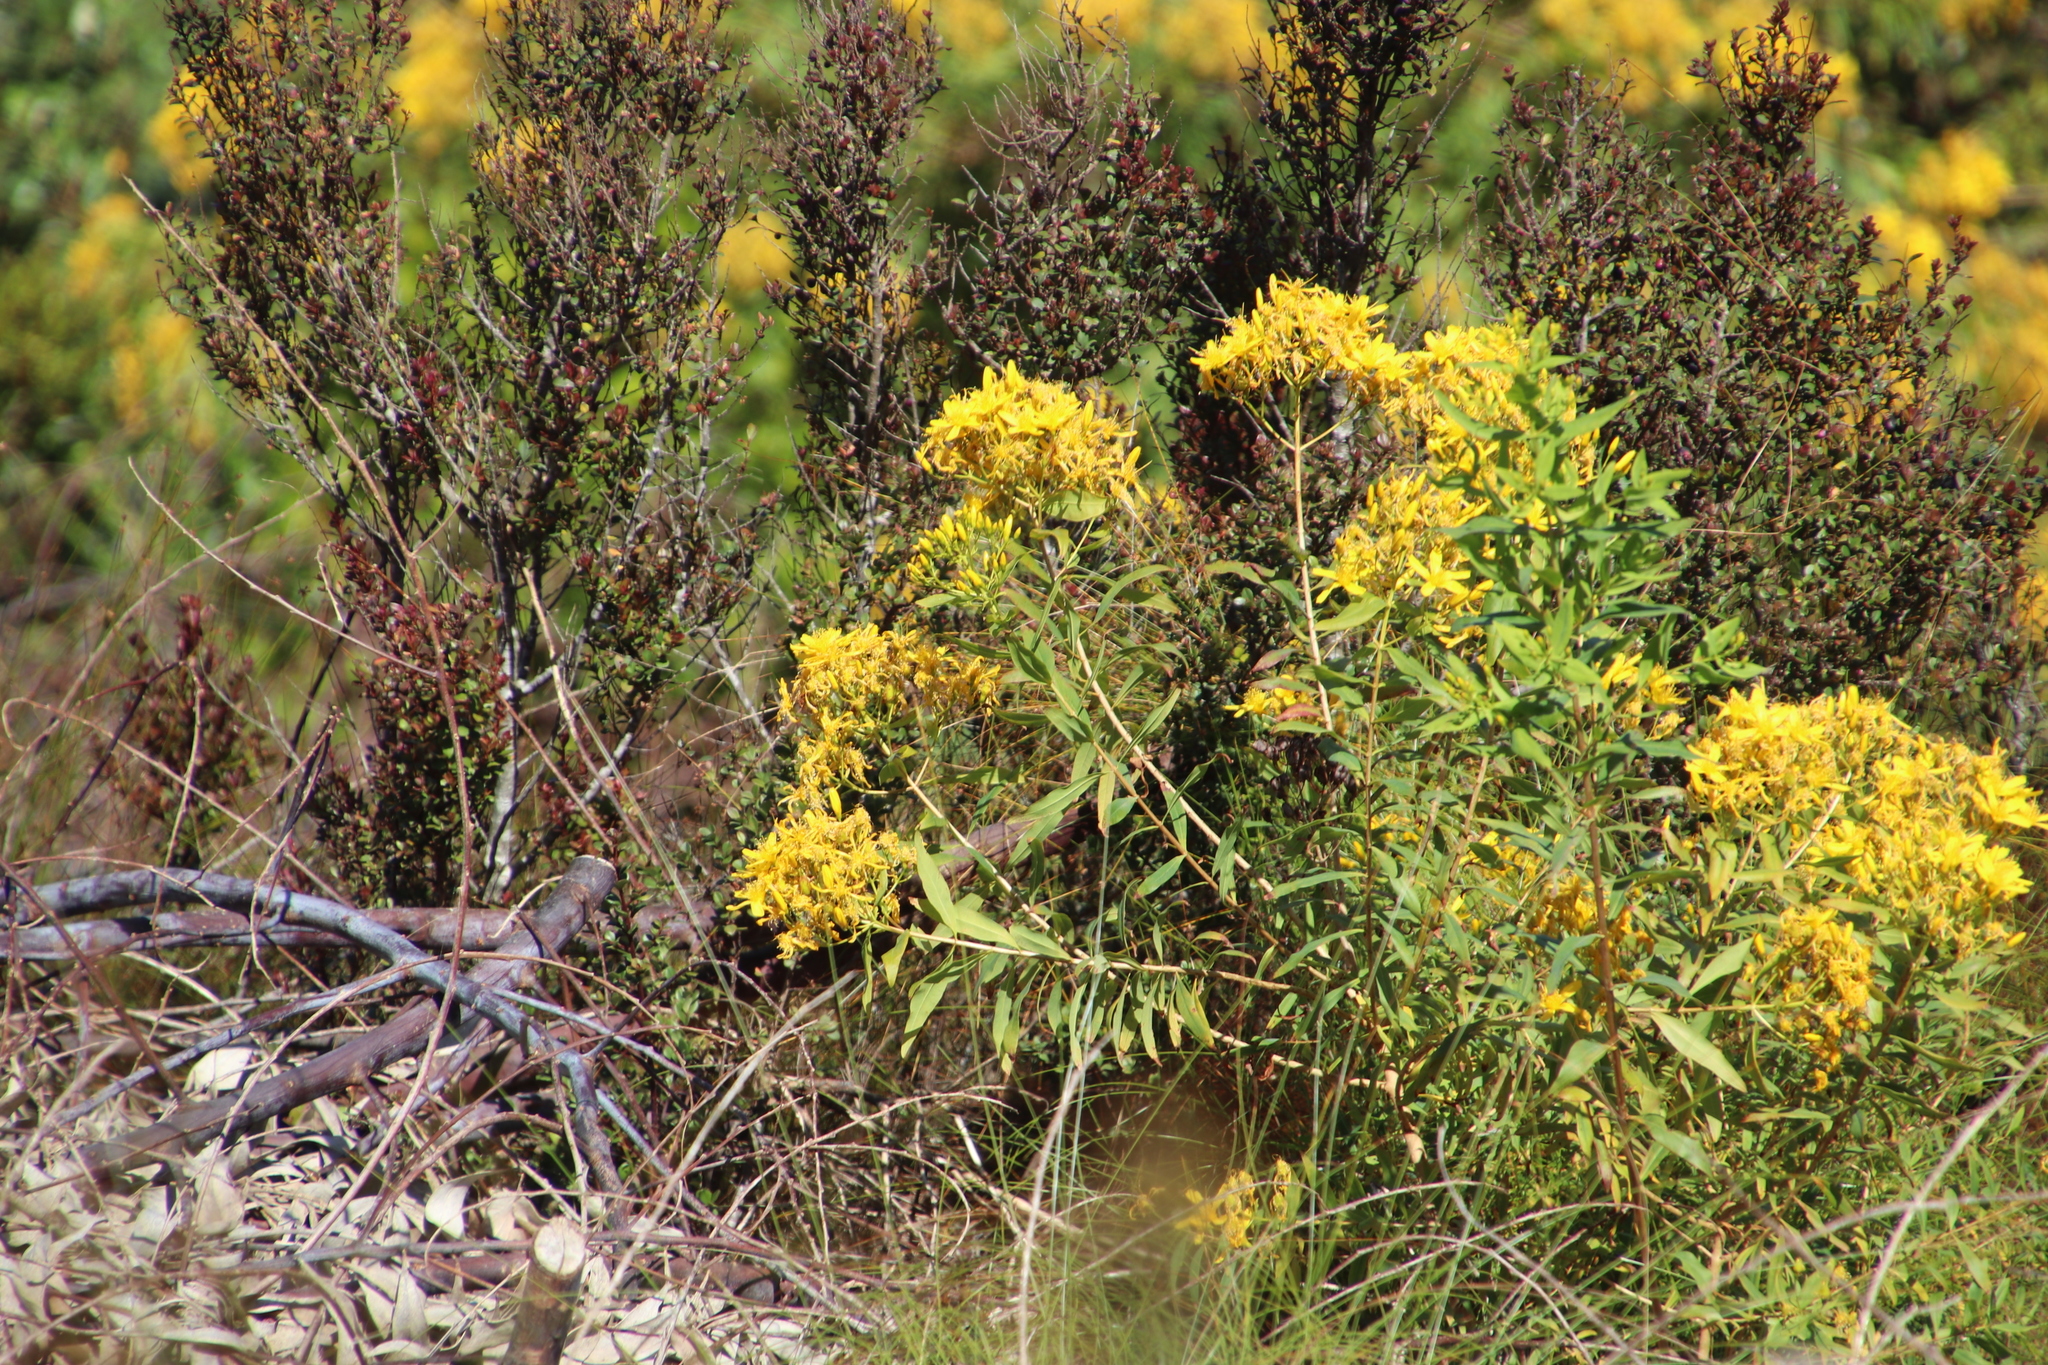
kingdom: Plantae
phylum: Tracheophyta
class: Magnoliopsida
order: Malpighiales
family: Hypericaceae
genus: Hypericum
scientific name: Hypericum canariense
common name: Canary island st. johnswort
